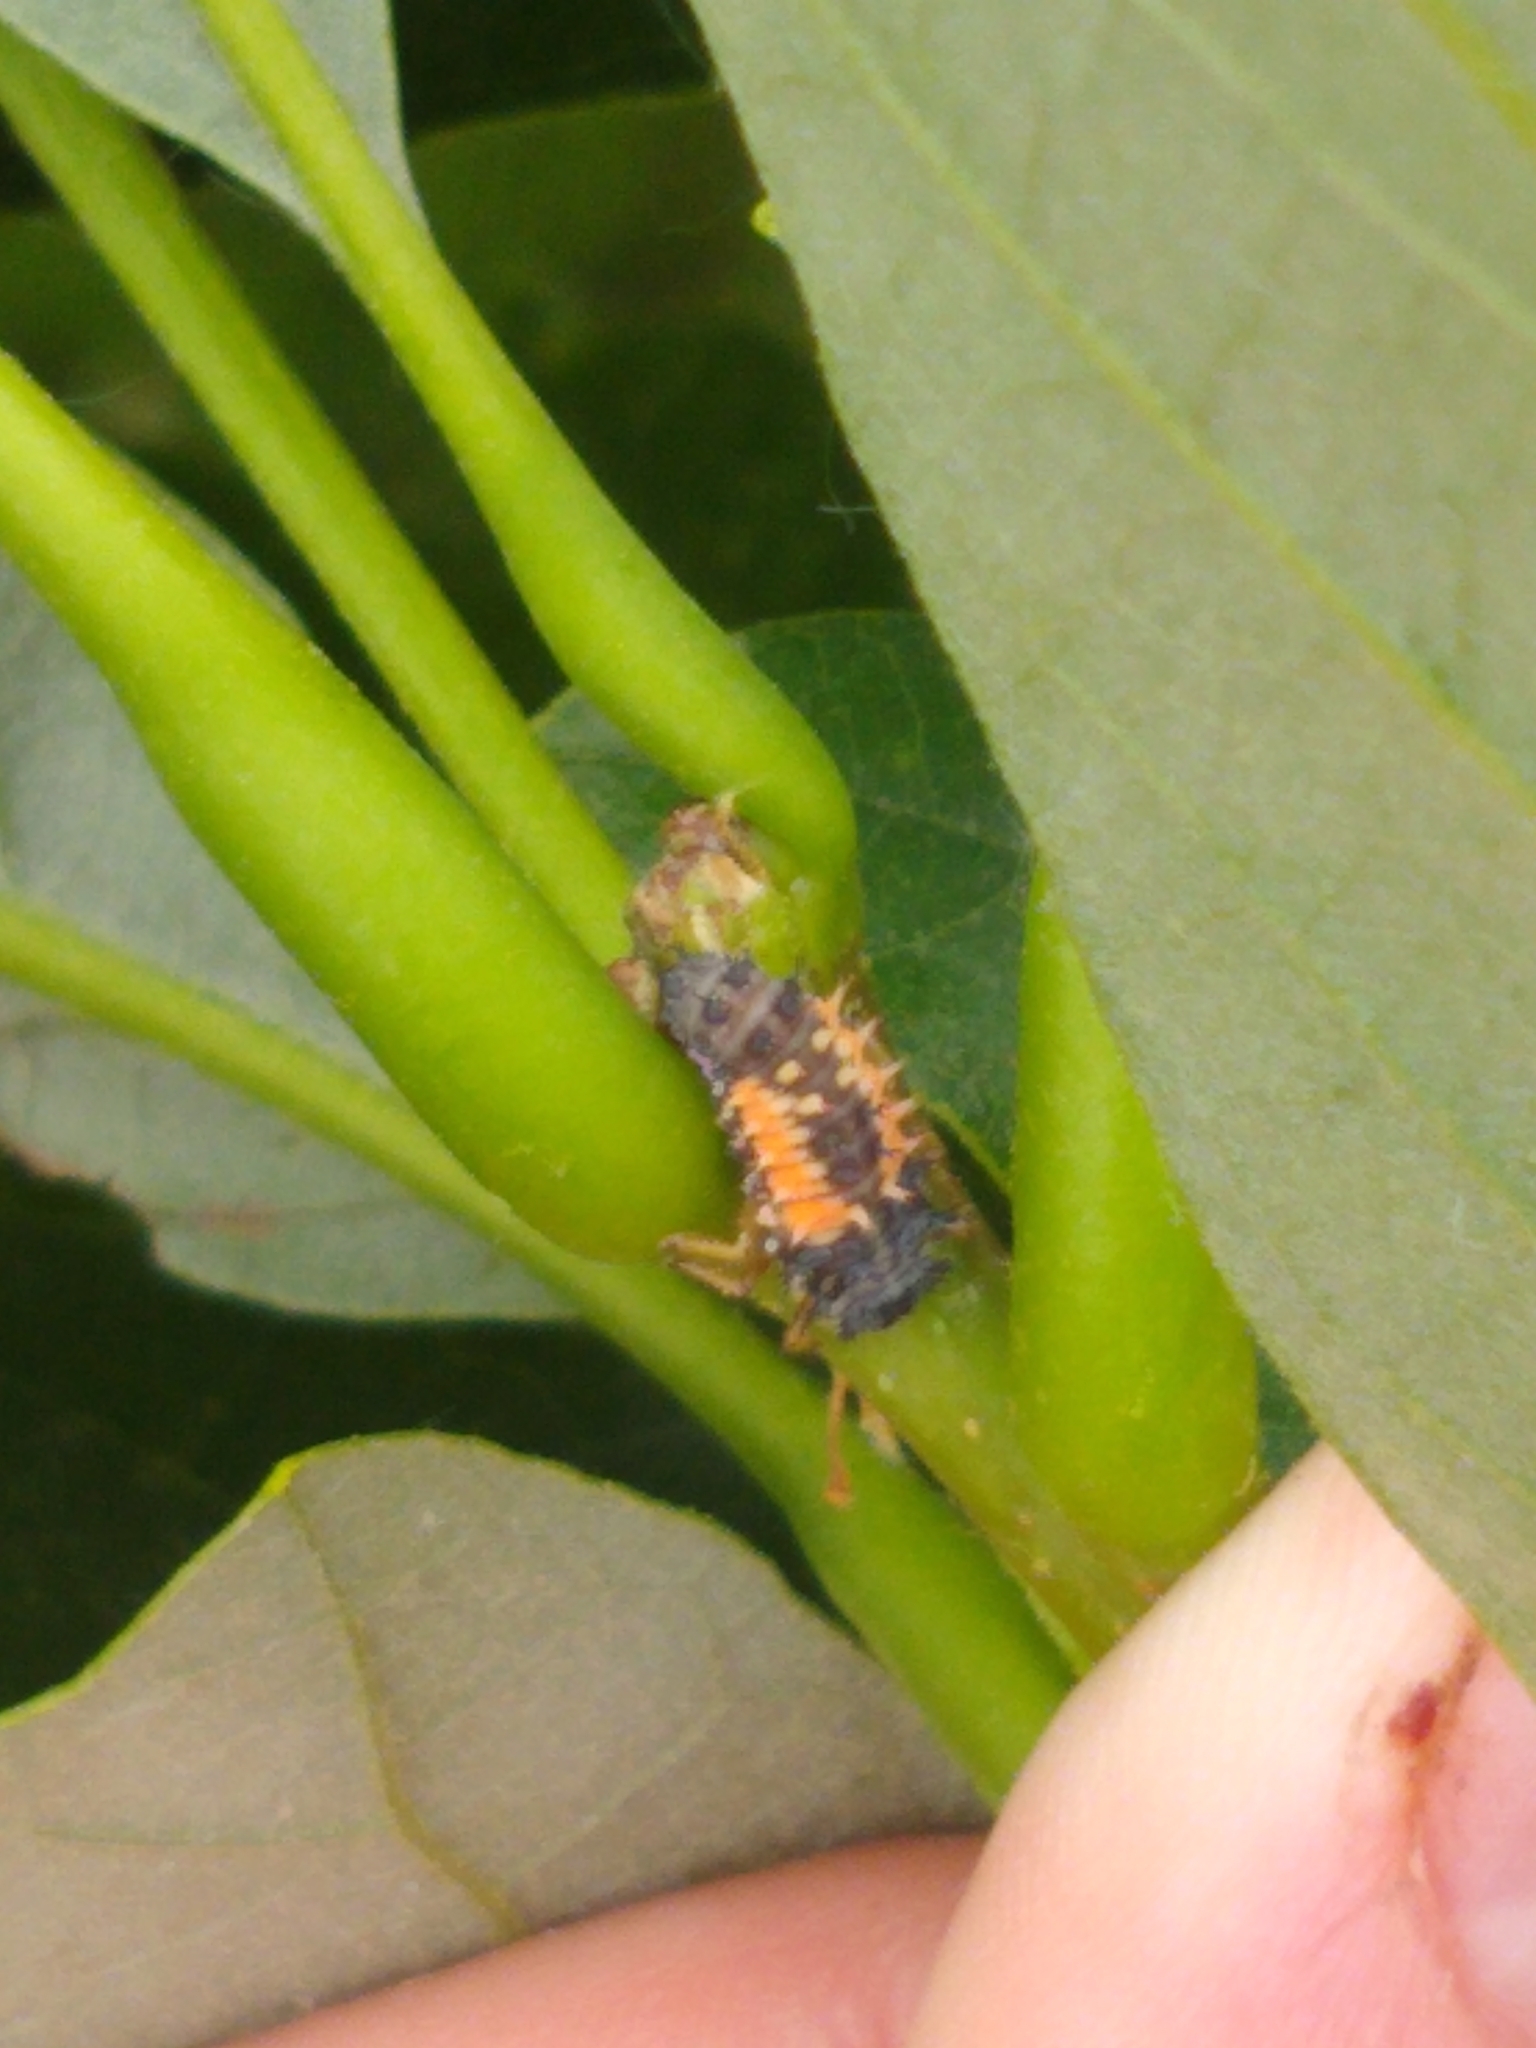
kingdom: Animalia
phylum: Arthropoda
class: Insecta
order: Coleoptera
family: Coccinellidae
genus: Harmonia
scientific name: Harmonia axyridis
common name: Harlequin ladybird
